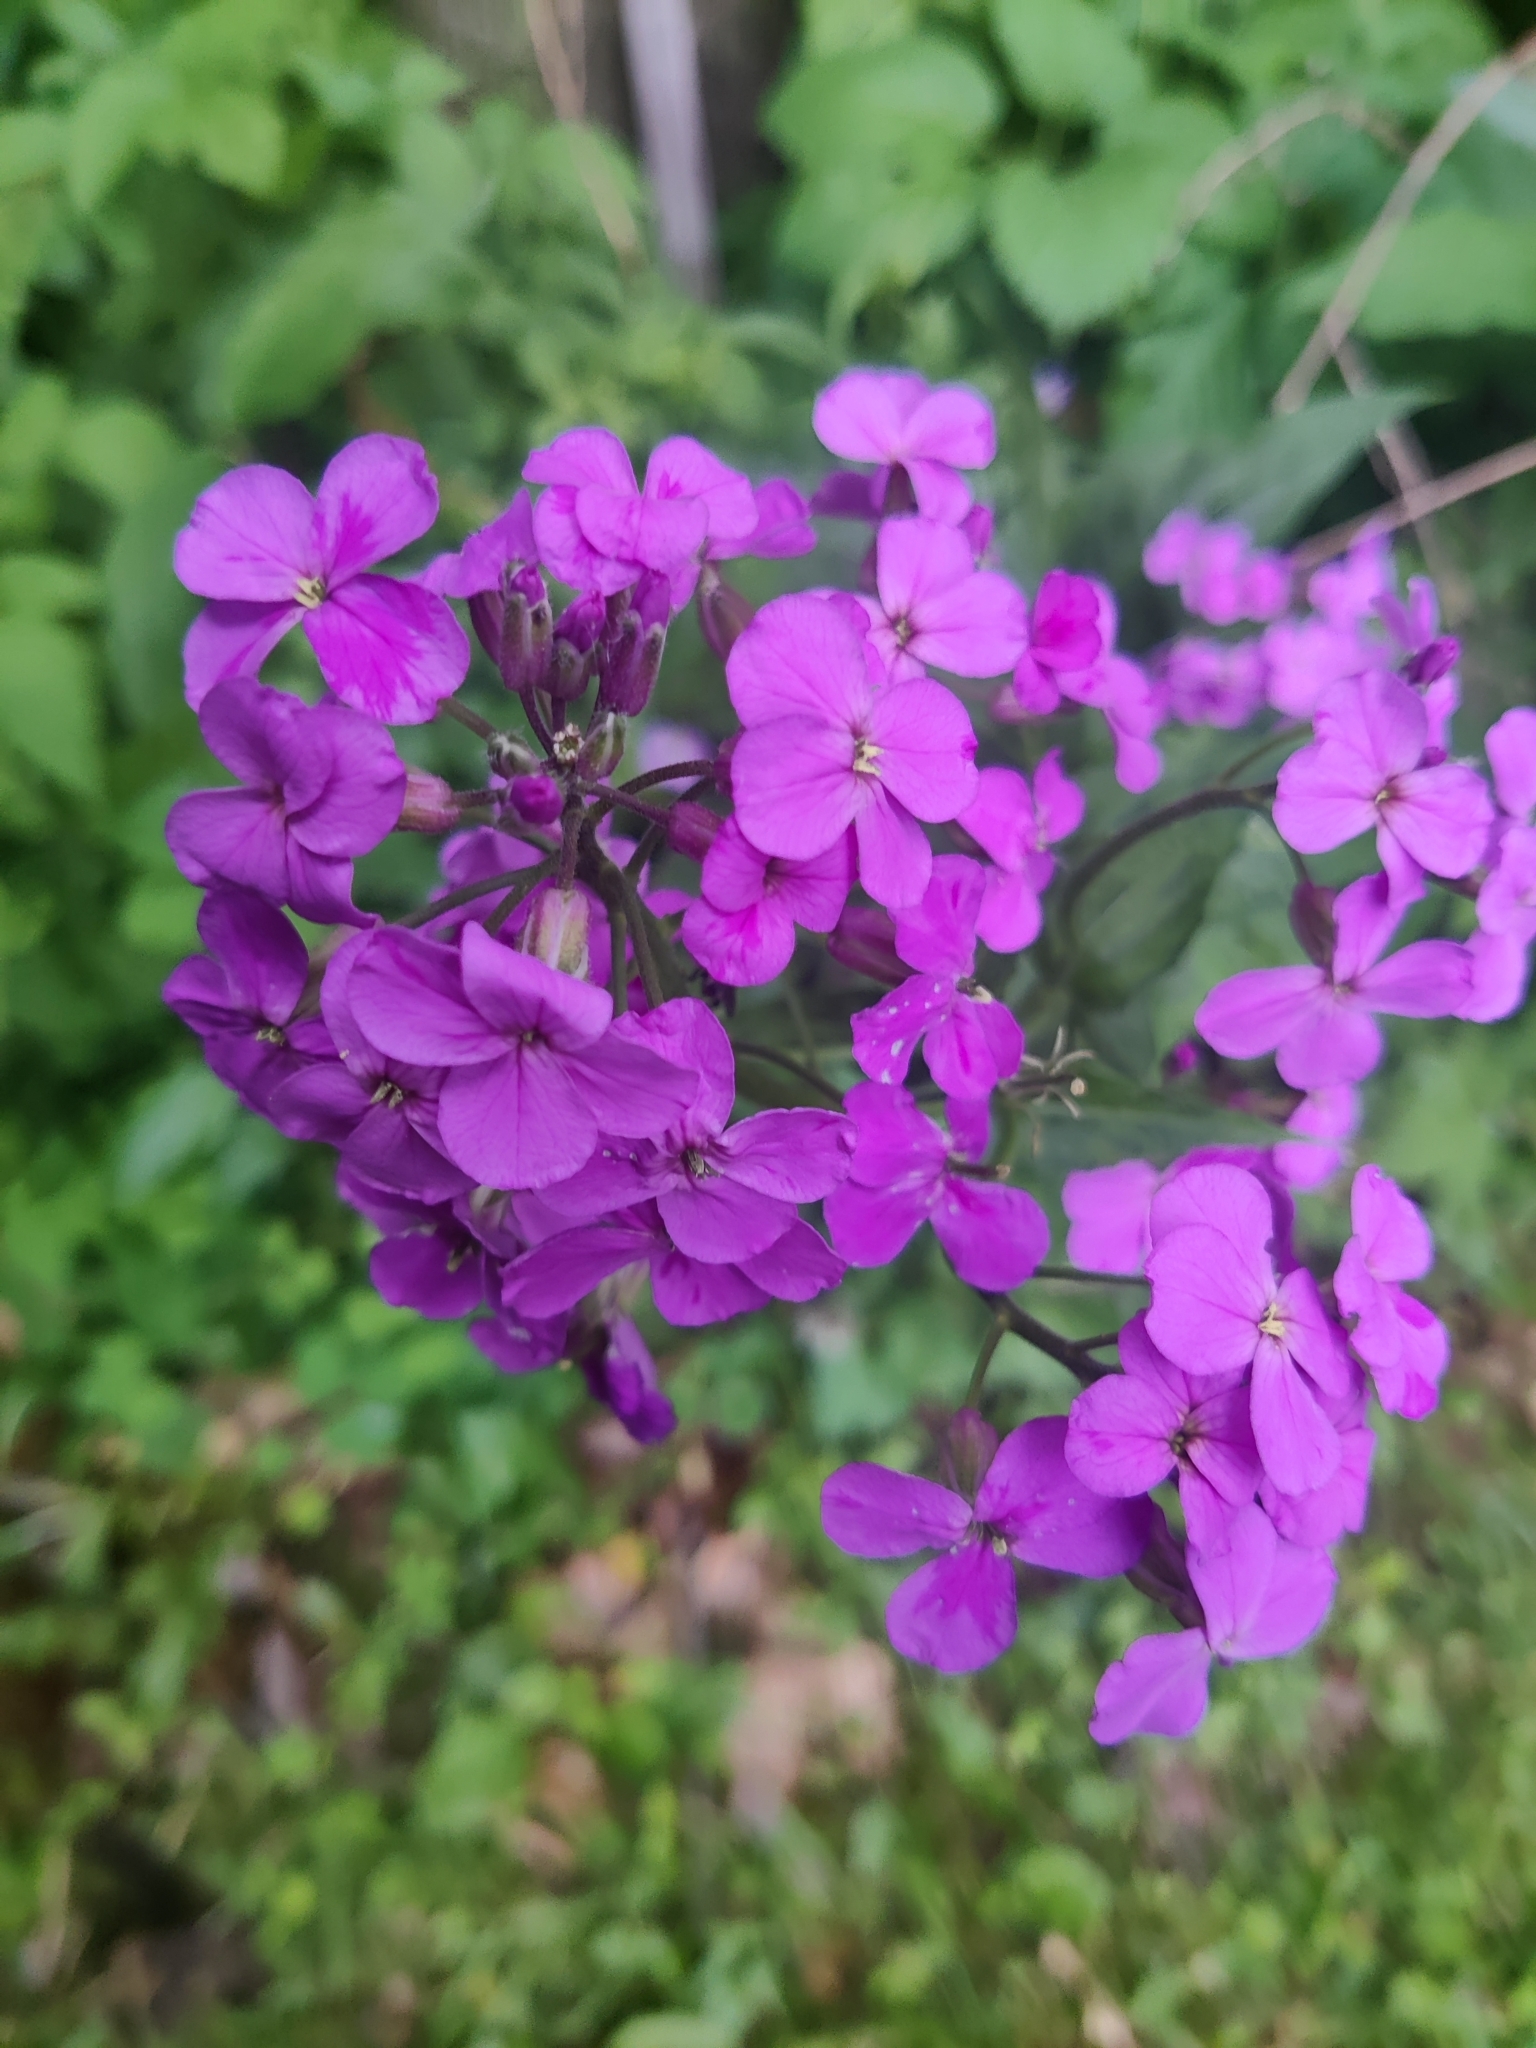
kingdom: Plantae
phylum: Tracheophyta
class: Magnoliopsida
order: Brassicales
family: Brassicaceae
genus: Hesperis
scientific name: Hesperis matronalis
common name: Dame's-violet
